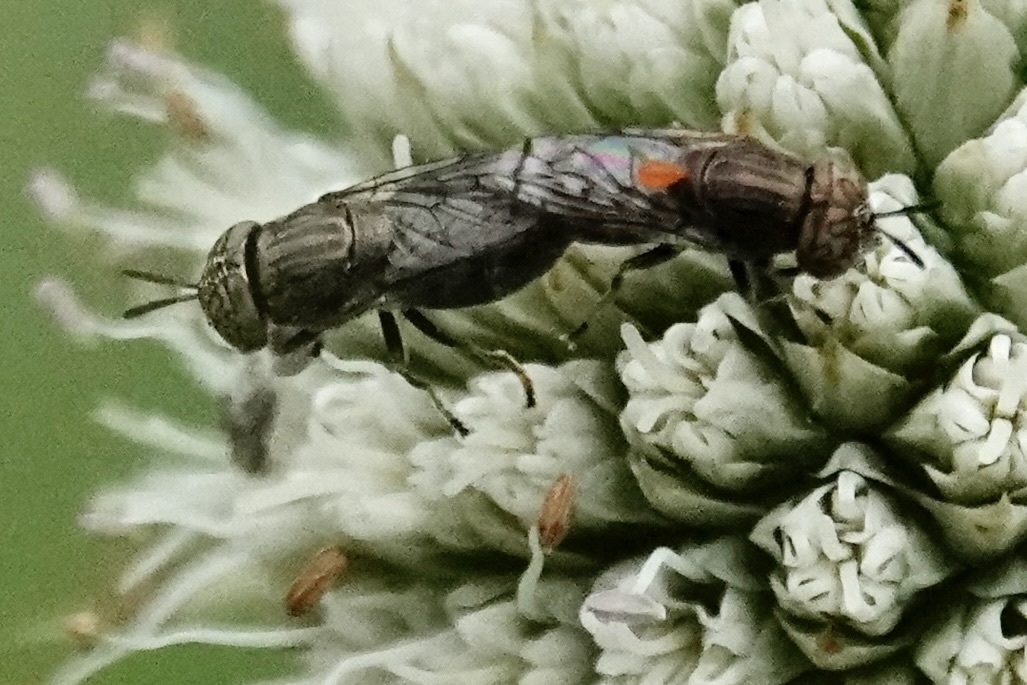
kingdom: Animalia
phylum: Arthropoda
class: Insecta
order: Diptera
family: Syrphidae
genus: Orthonevra
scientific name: Orthonevra nitida
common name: Wavy mucksucker
